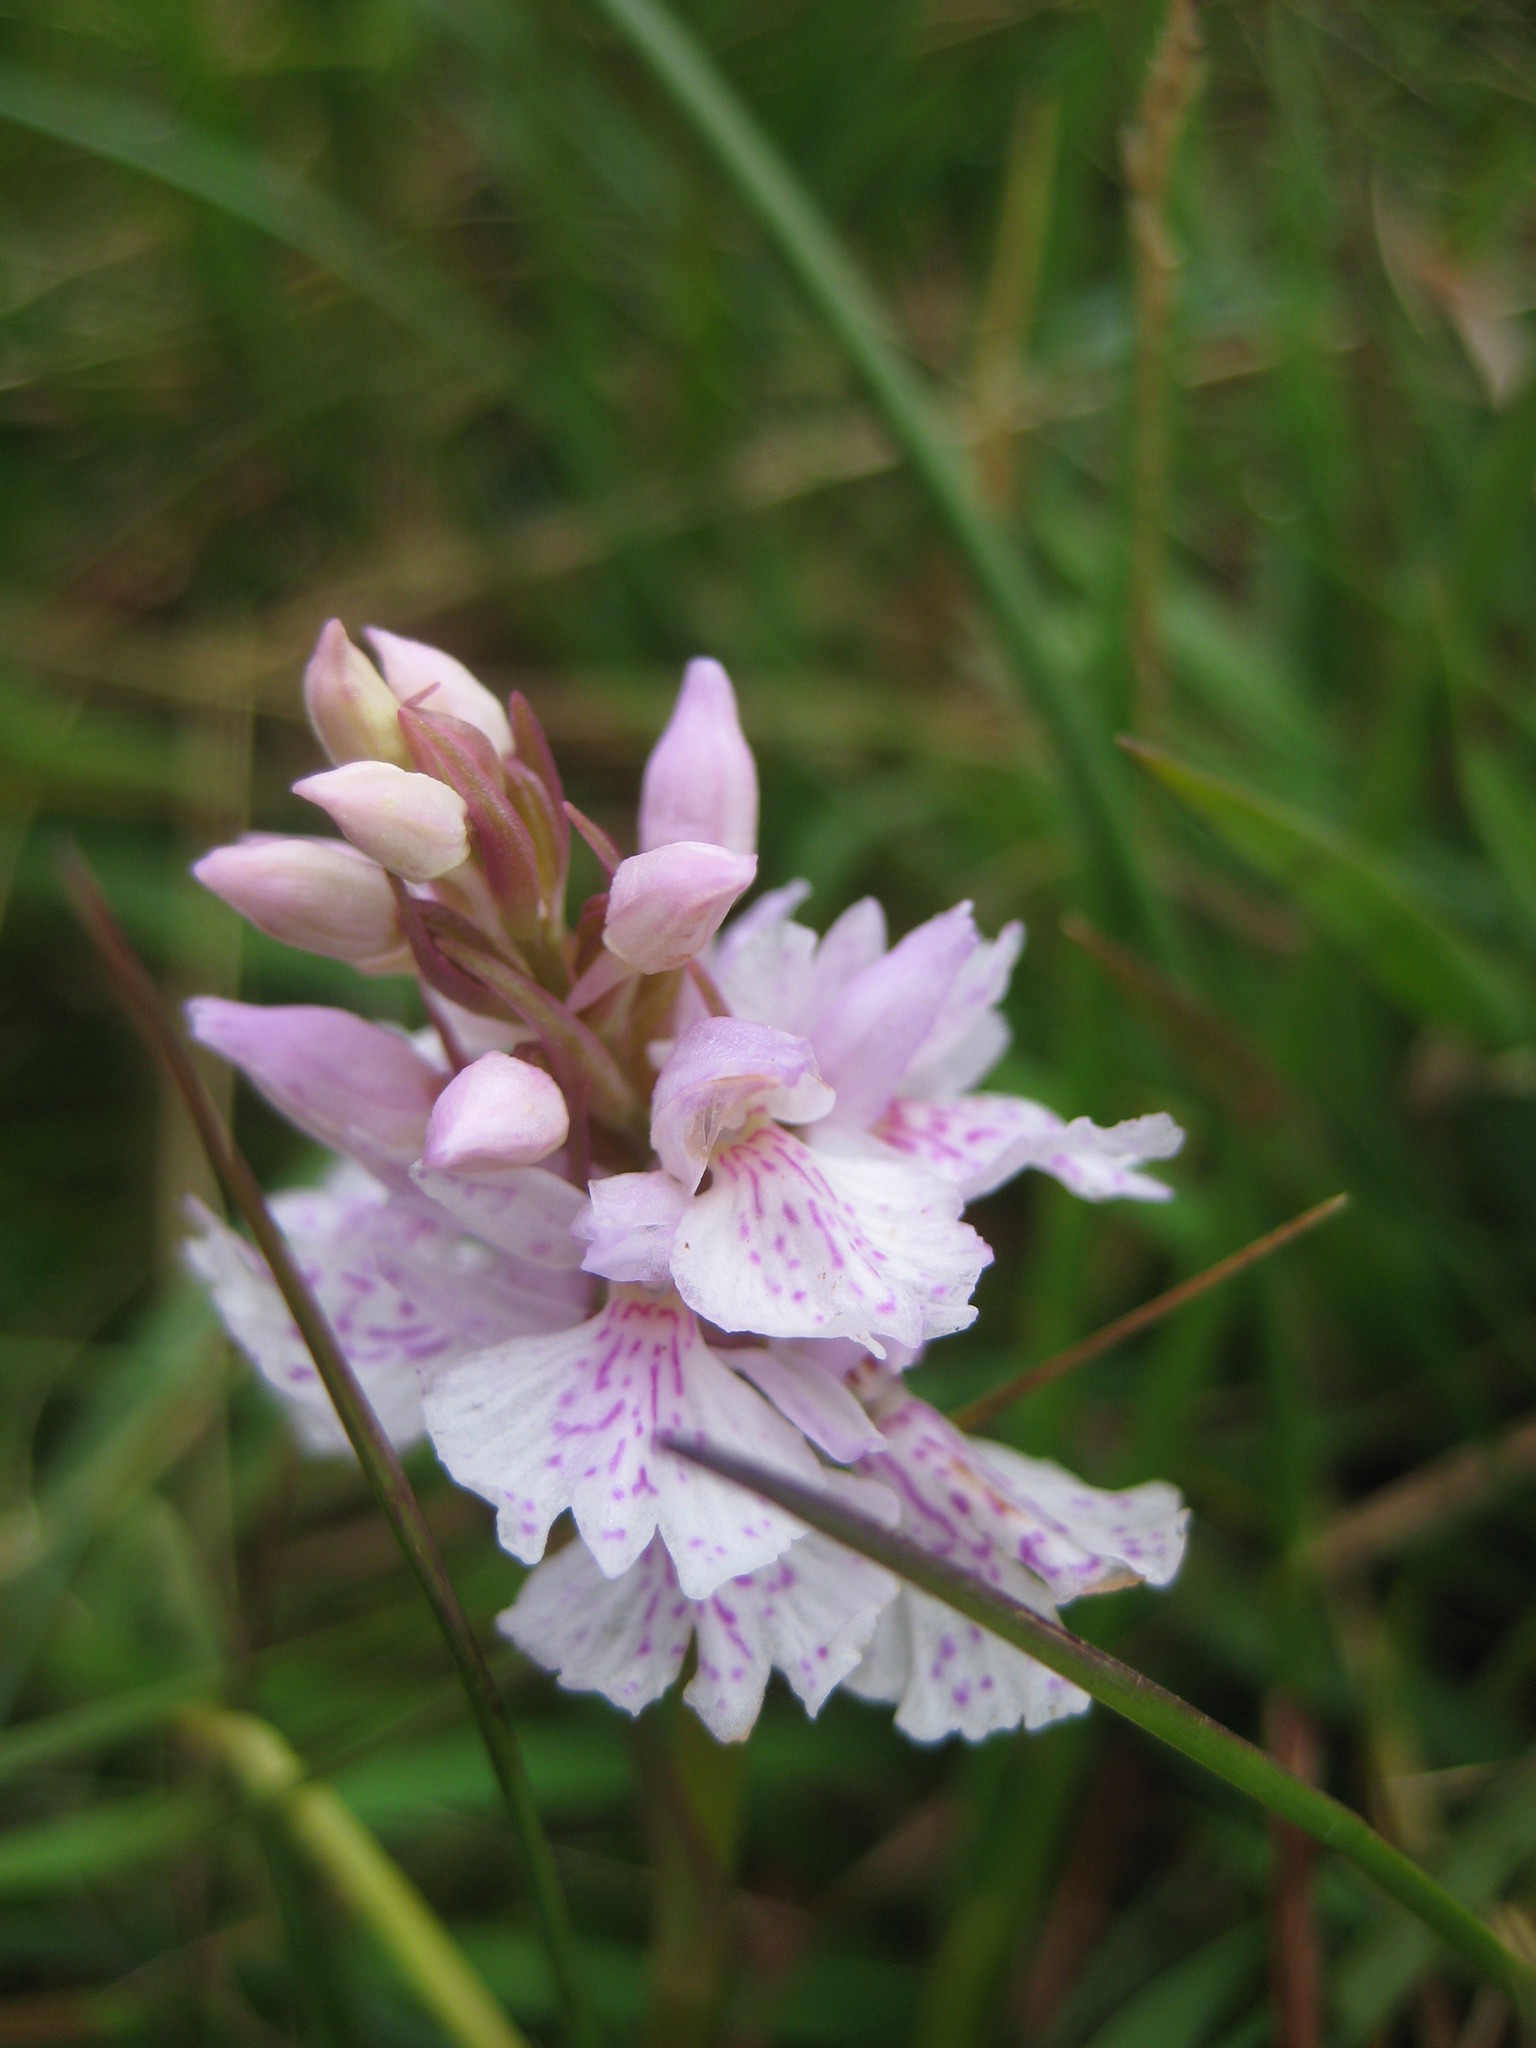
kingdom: Plantae
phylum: Tracheophyta
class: Liliopsida
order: Asparagales
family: Orchidaceae
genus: Dactylorhiza
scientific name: Dactylorhiza maculata
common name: Heath spotted-orchid
